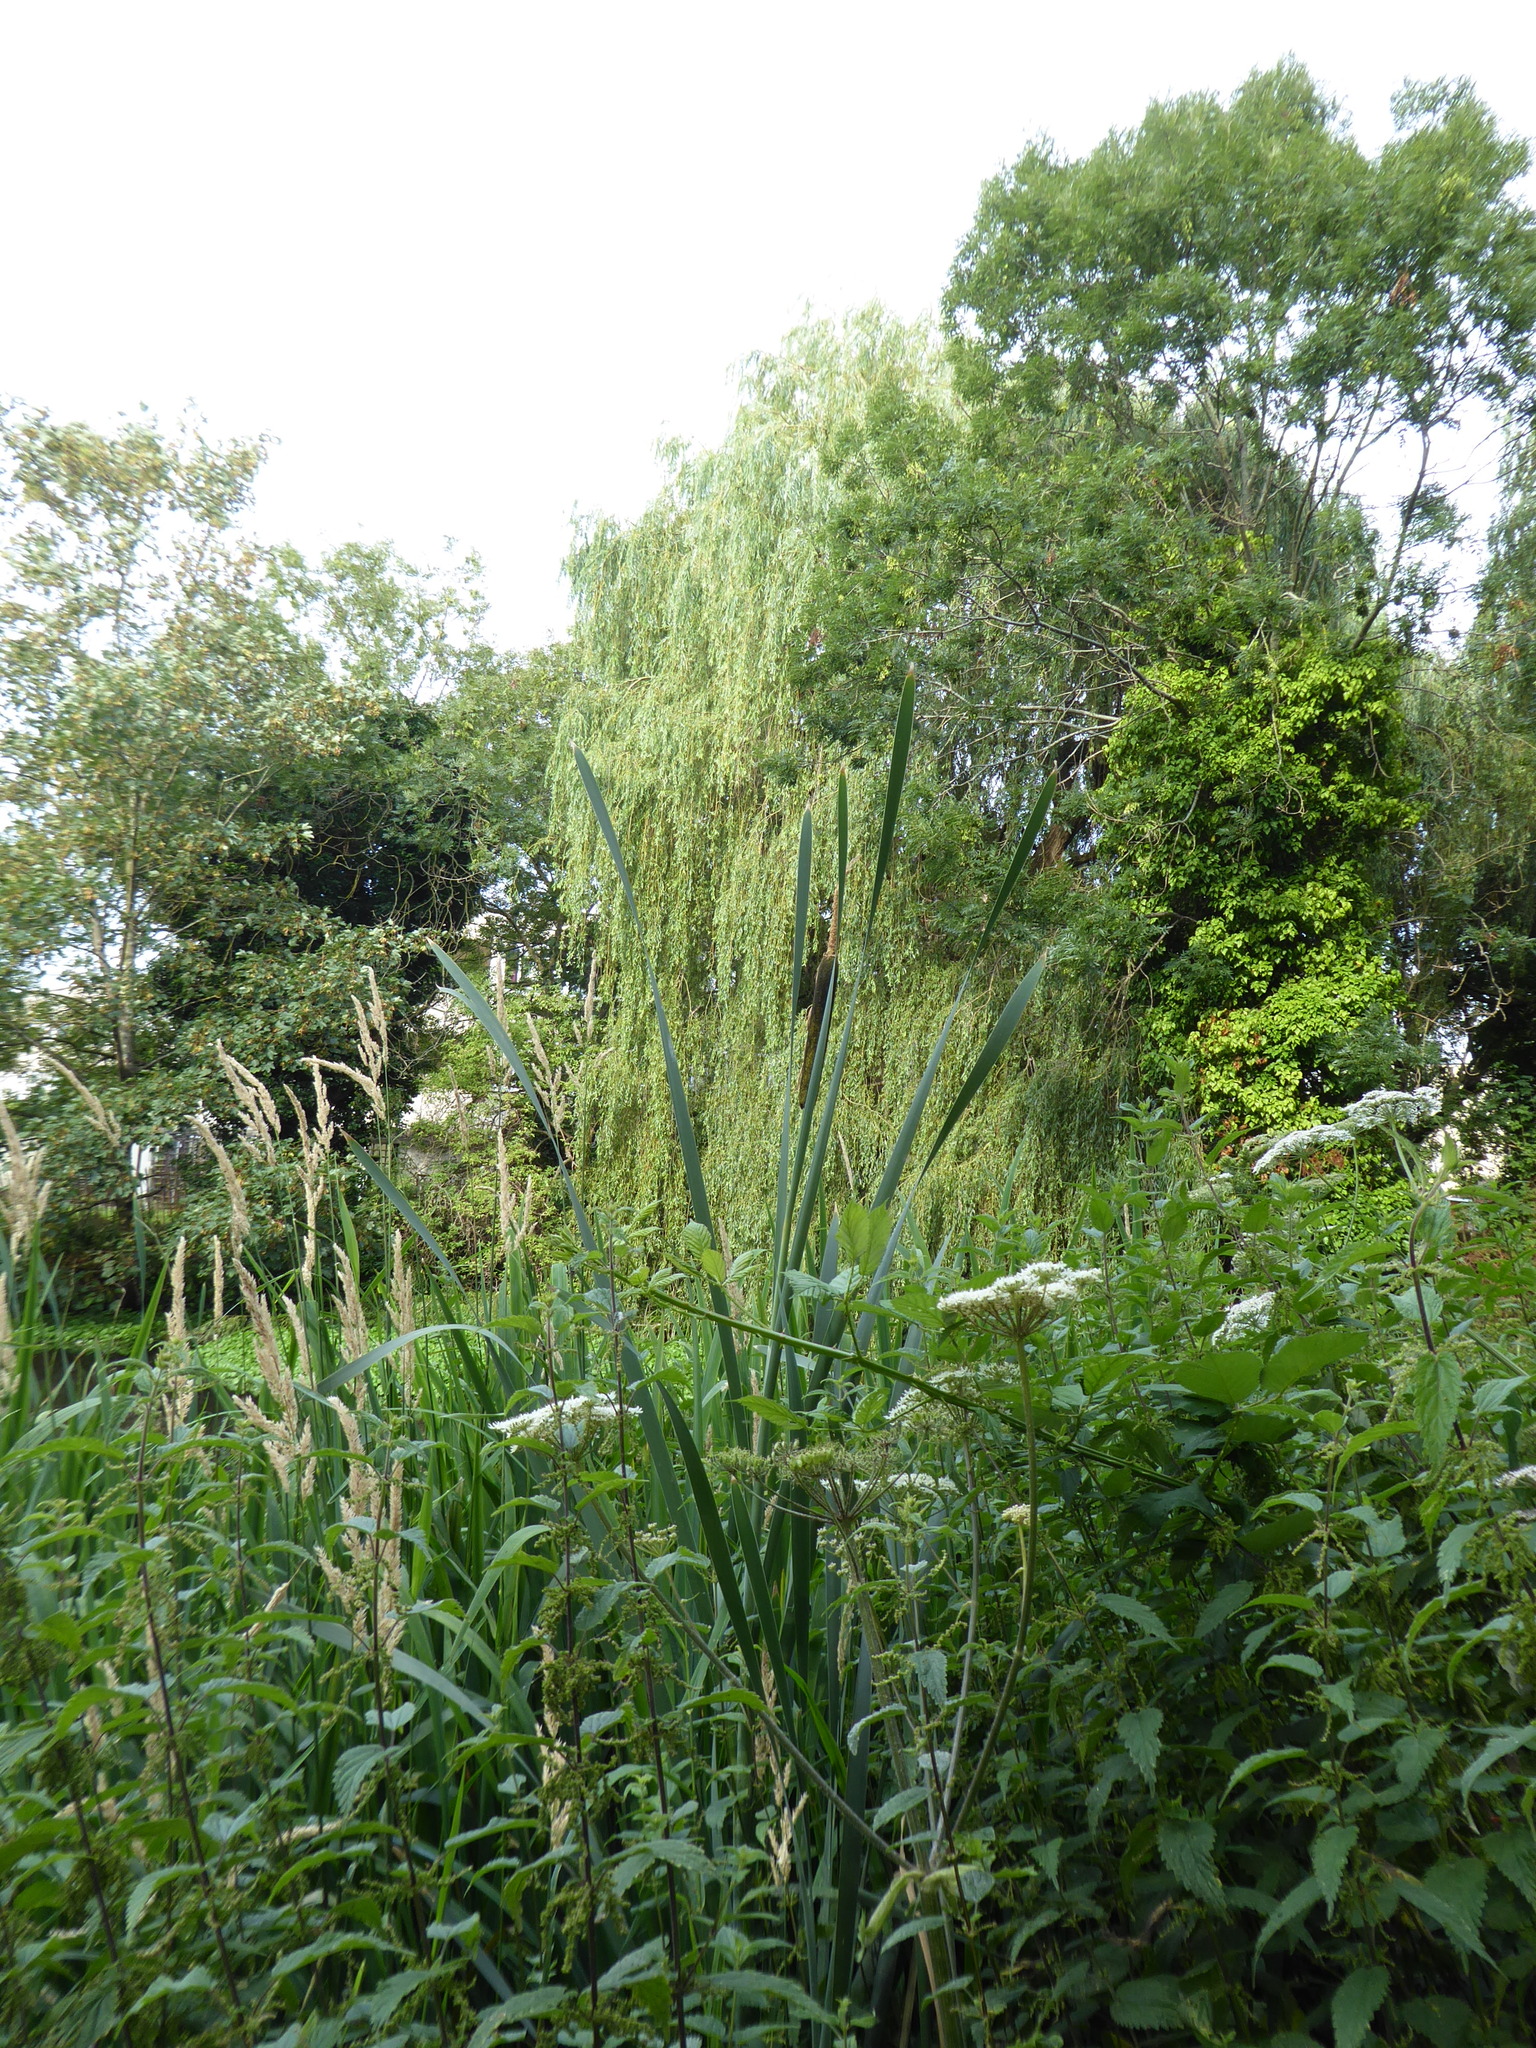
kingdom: Plantae
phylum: Tracheophyta
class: Liliopsida
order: Poales
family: Typhaceae
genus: Typha
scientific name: Typha latifolia
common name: Broadleaf cattail
